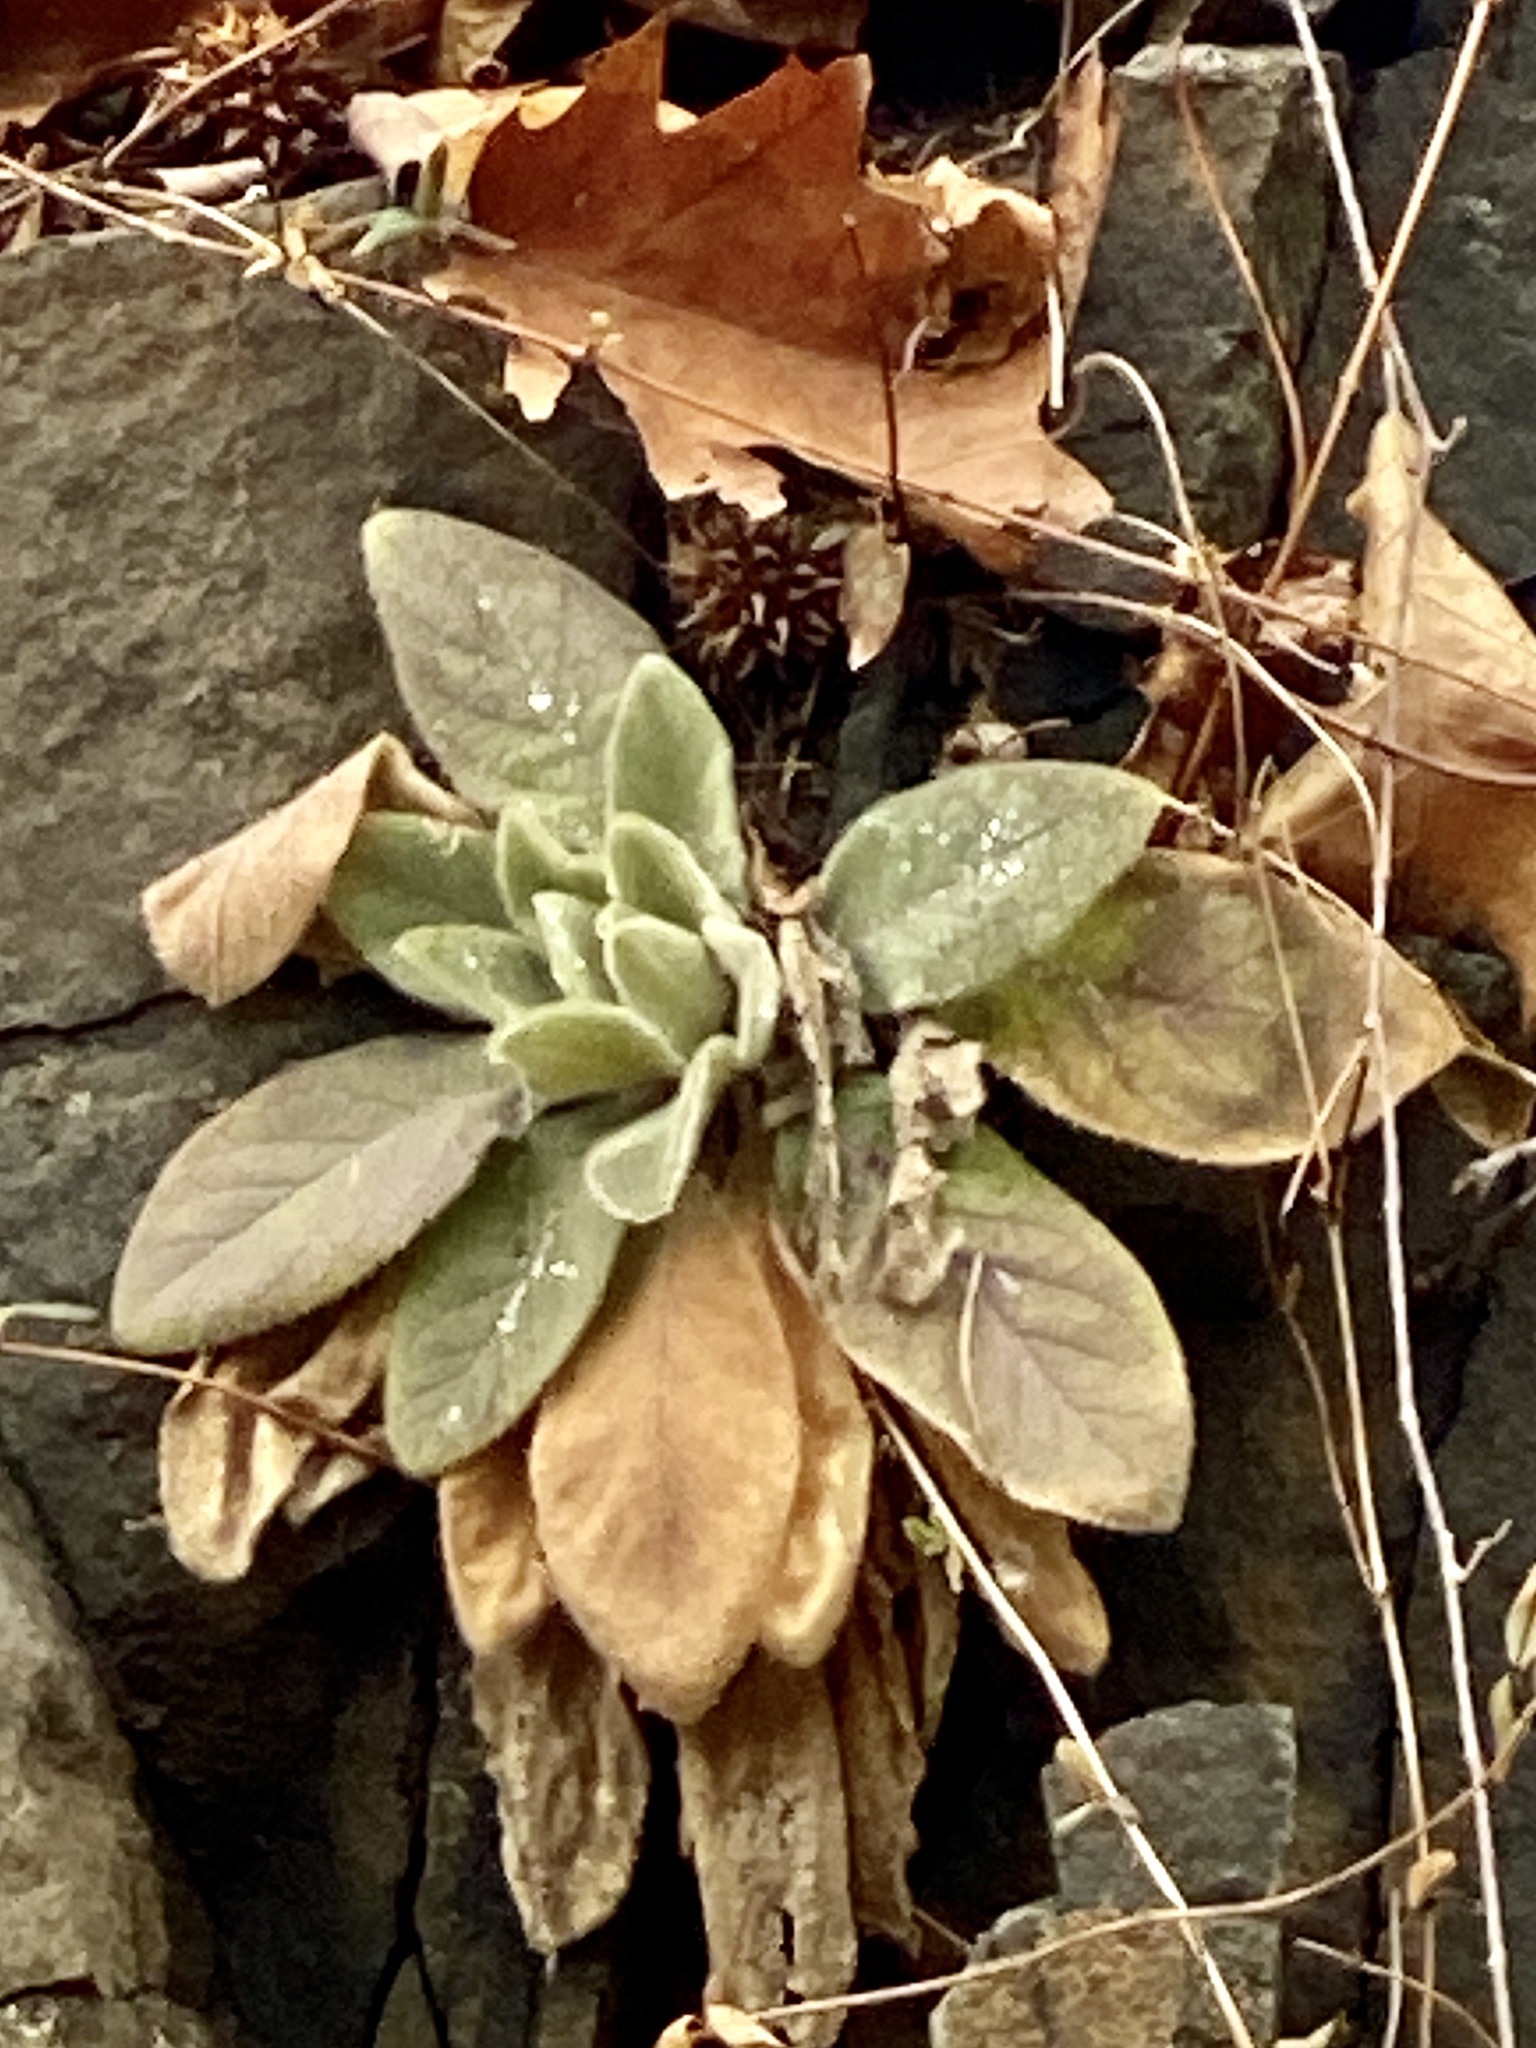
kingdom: Plantae
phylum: Tracheophyta
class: Magnoliopsida
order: Lamiales
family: Scrophulariaceae
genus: Verbascum
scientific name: Verbascum thapsus
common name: Common mullein
